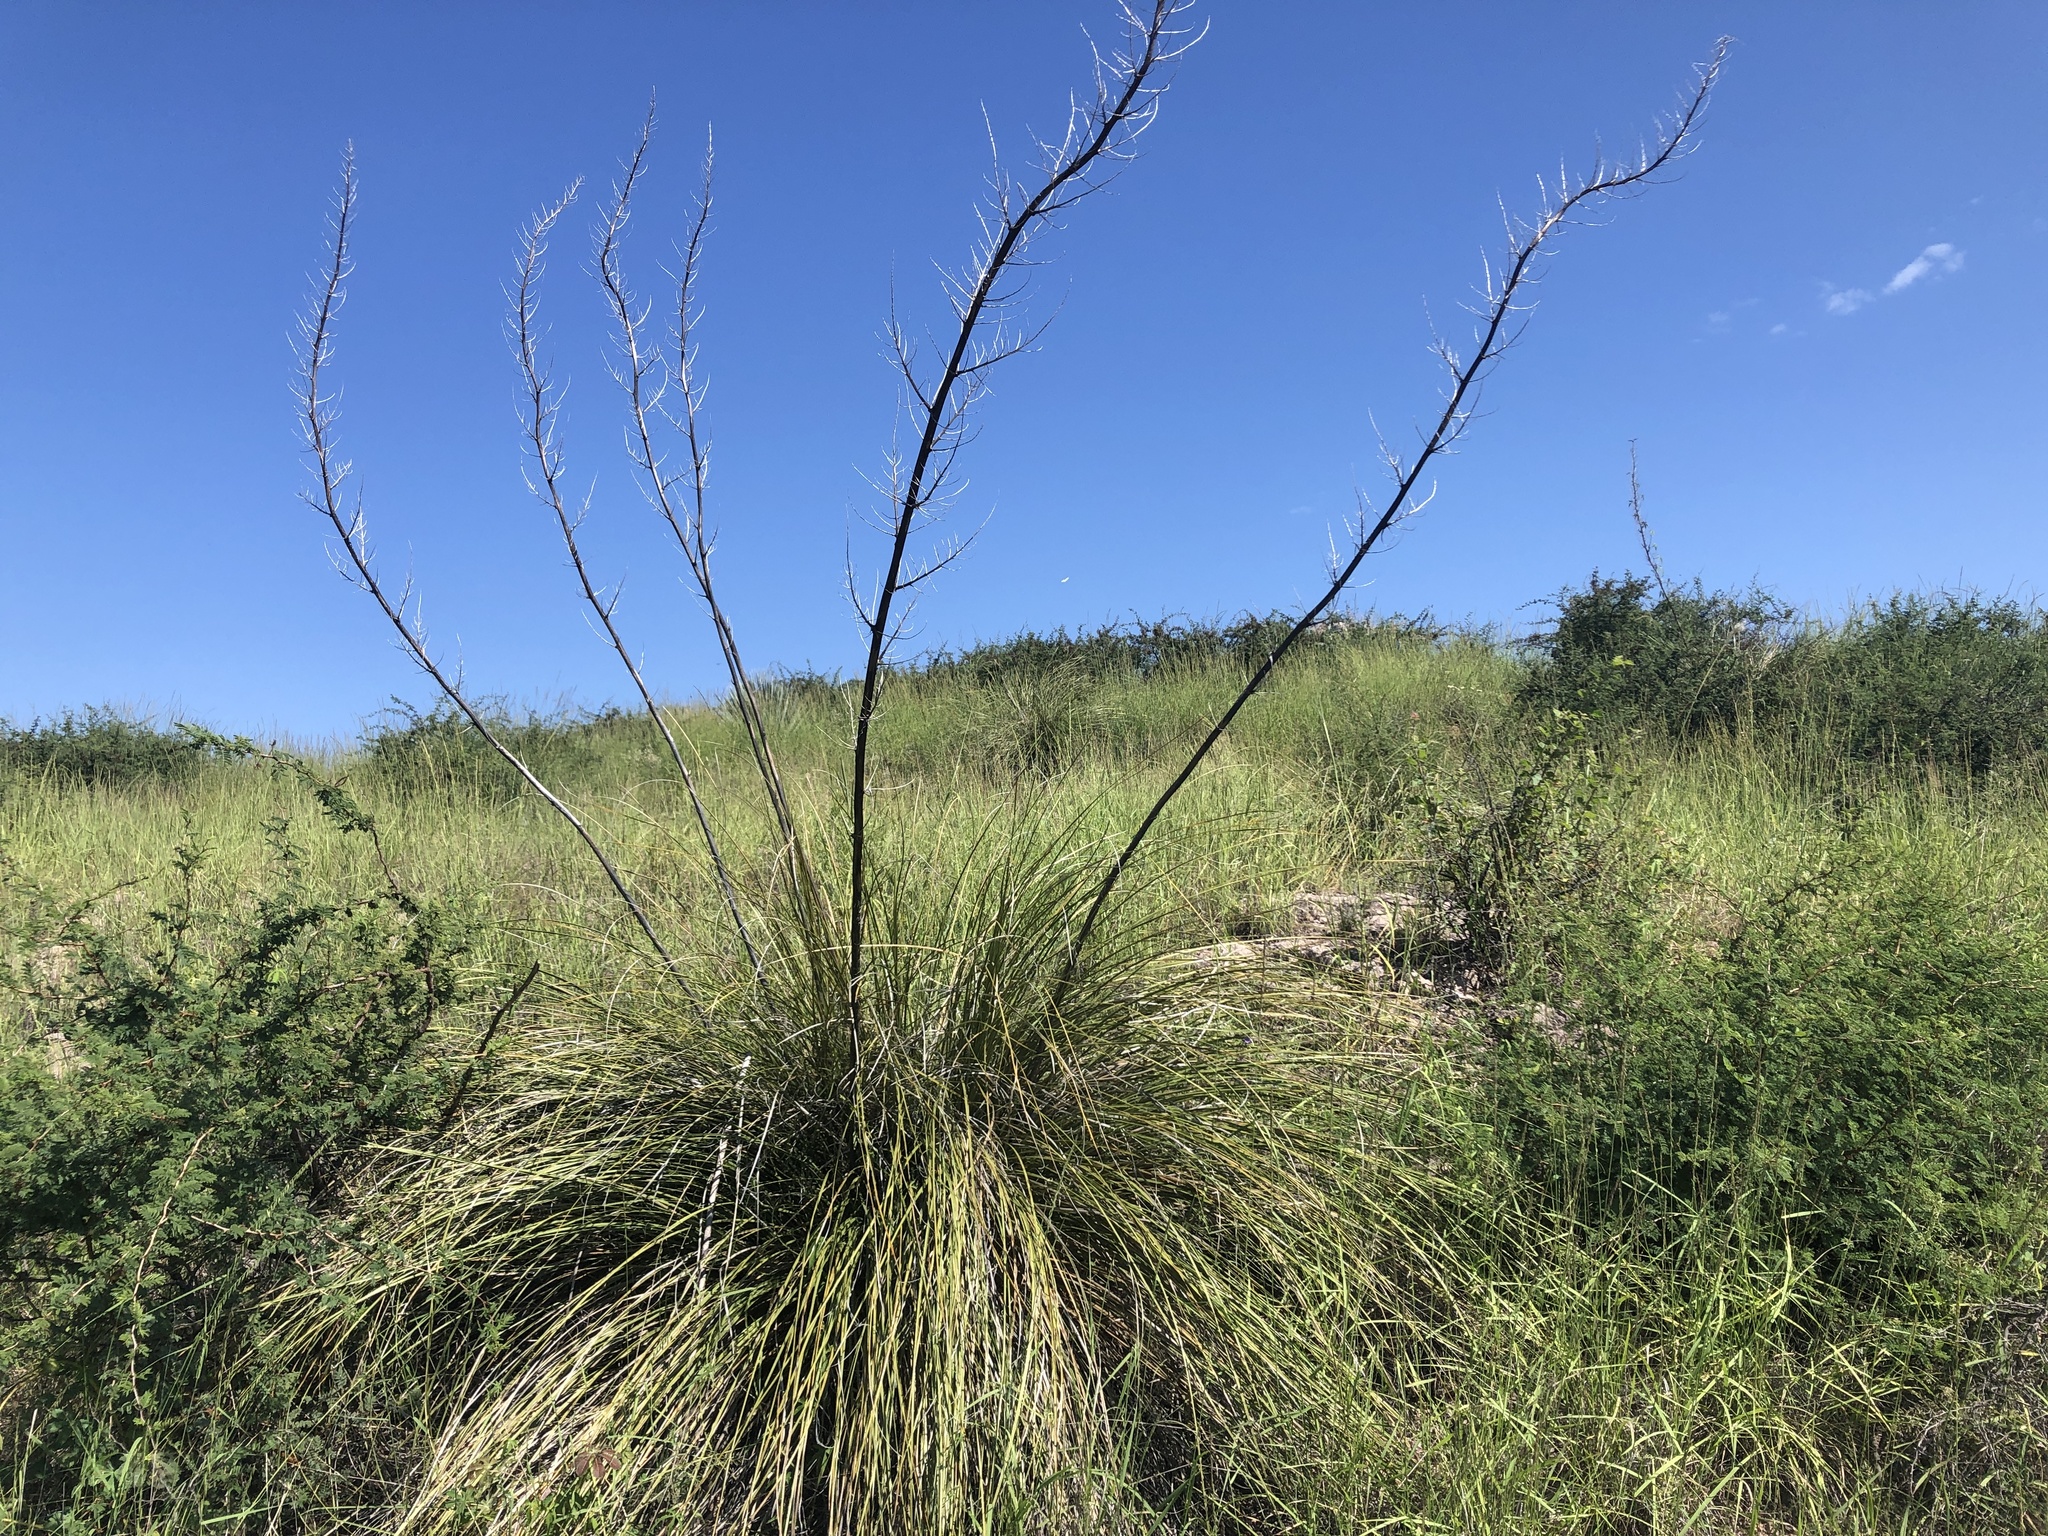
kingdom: Plantae
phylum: Tracheophyta
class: Liliopsida
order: Asparagales
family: Asparagaceae
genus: Nolina
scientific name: Nolina microcarpa
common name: Bear-grass
